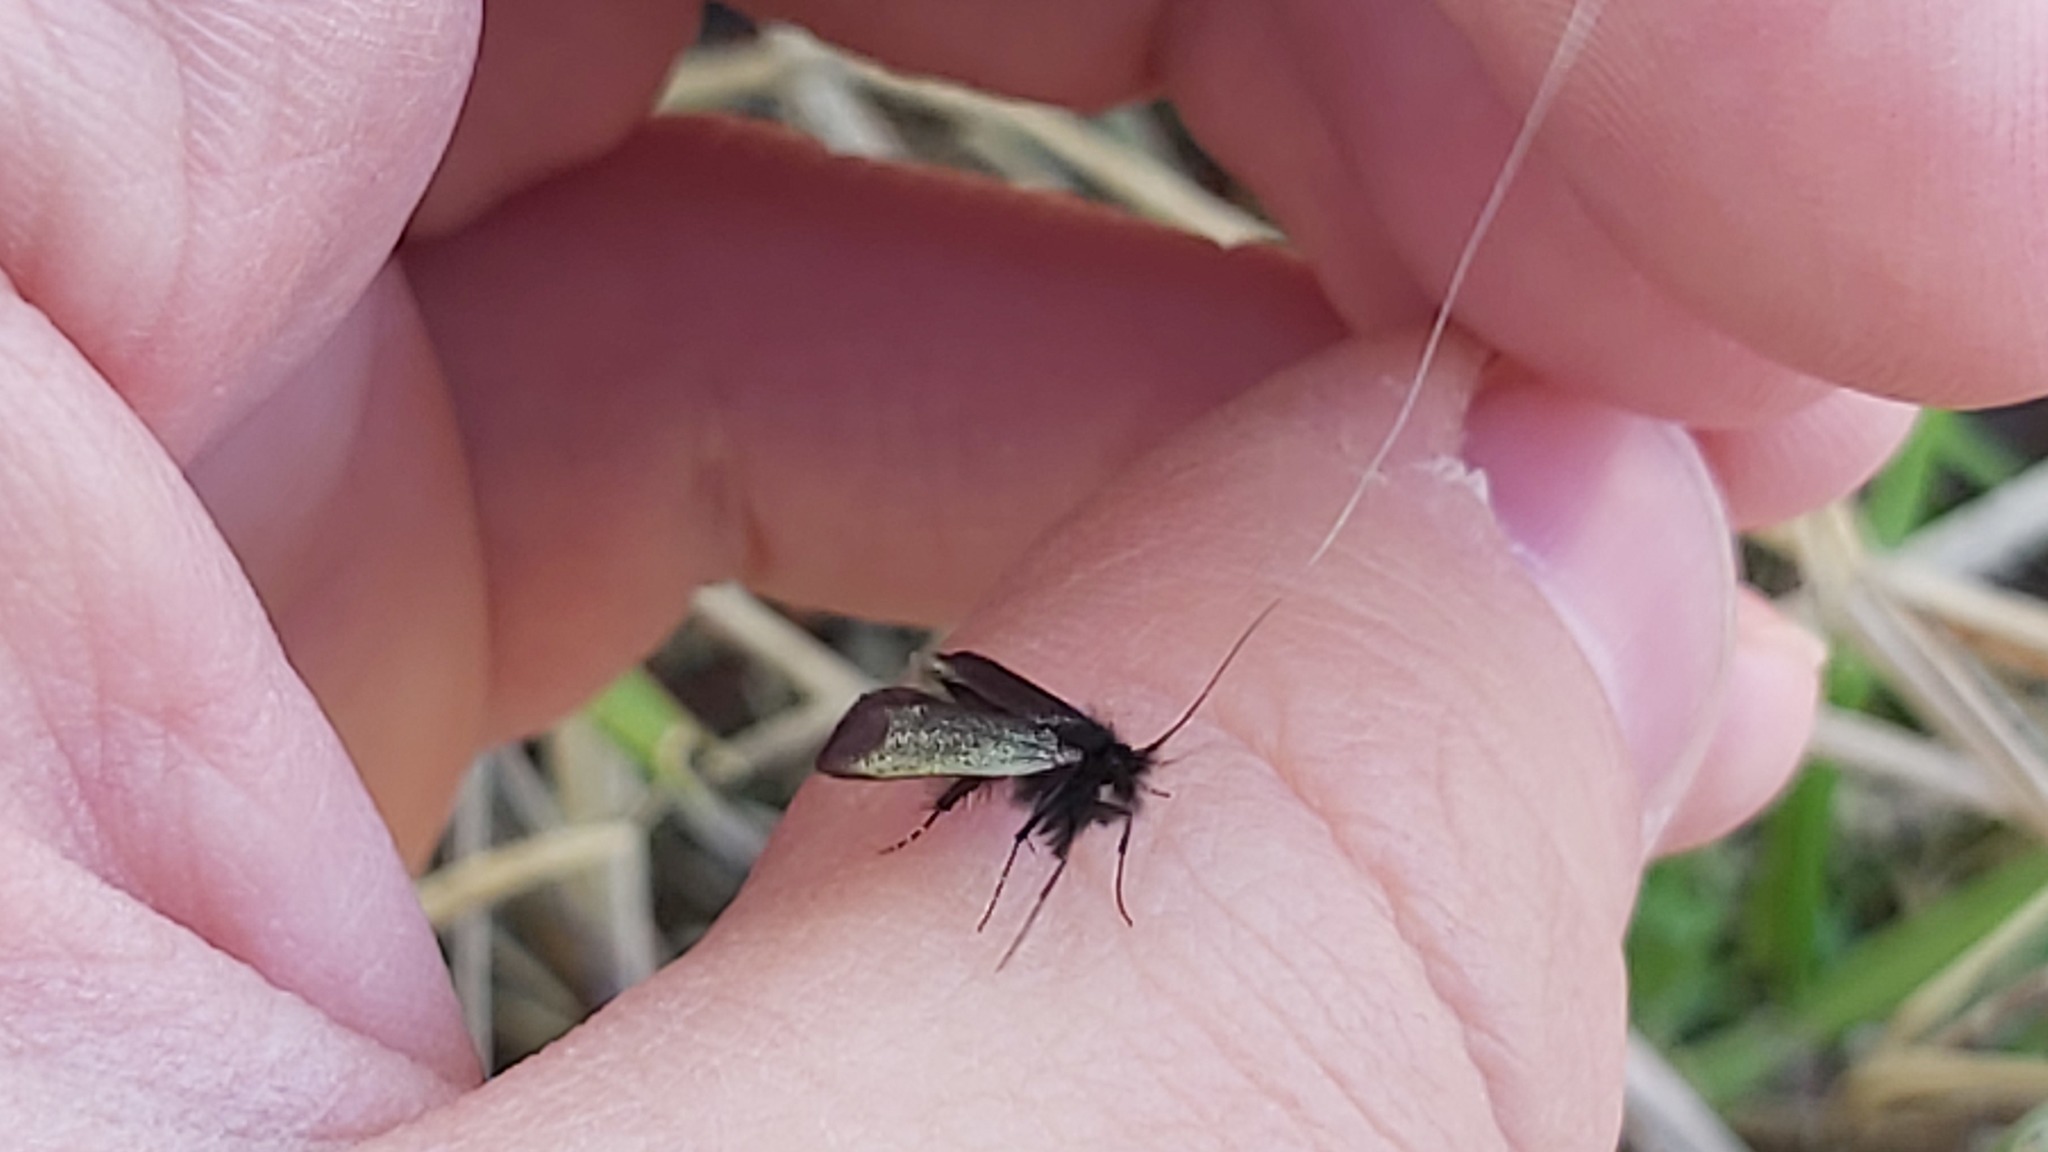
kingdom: Animalia
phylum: Arthropoda
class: Insecta
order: Lepidoptera
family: Adelidae
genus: Adela
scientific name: Adela viridella
